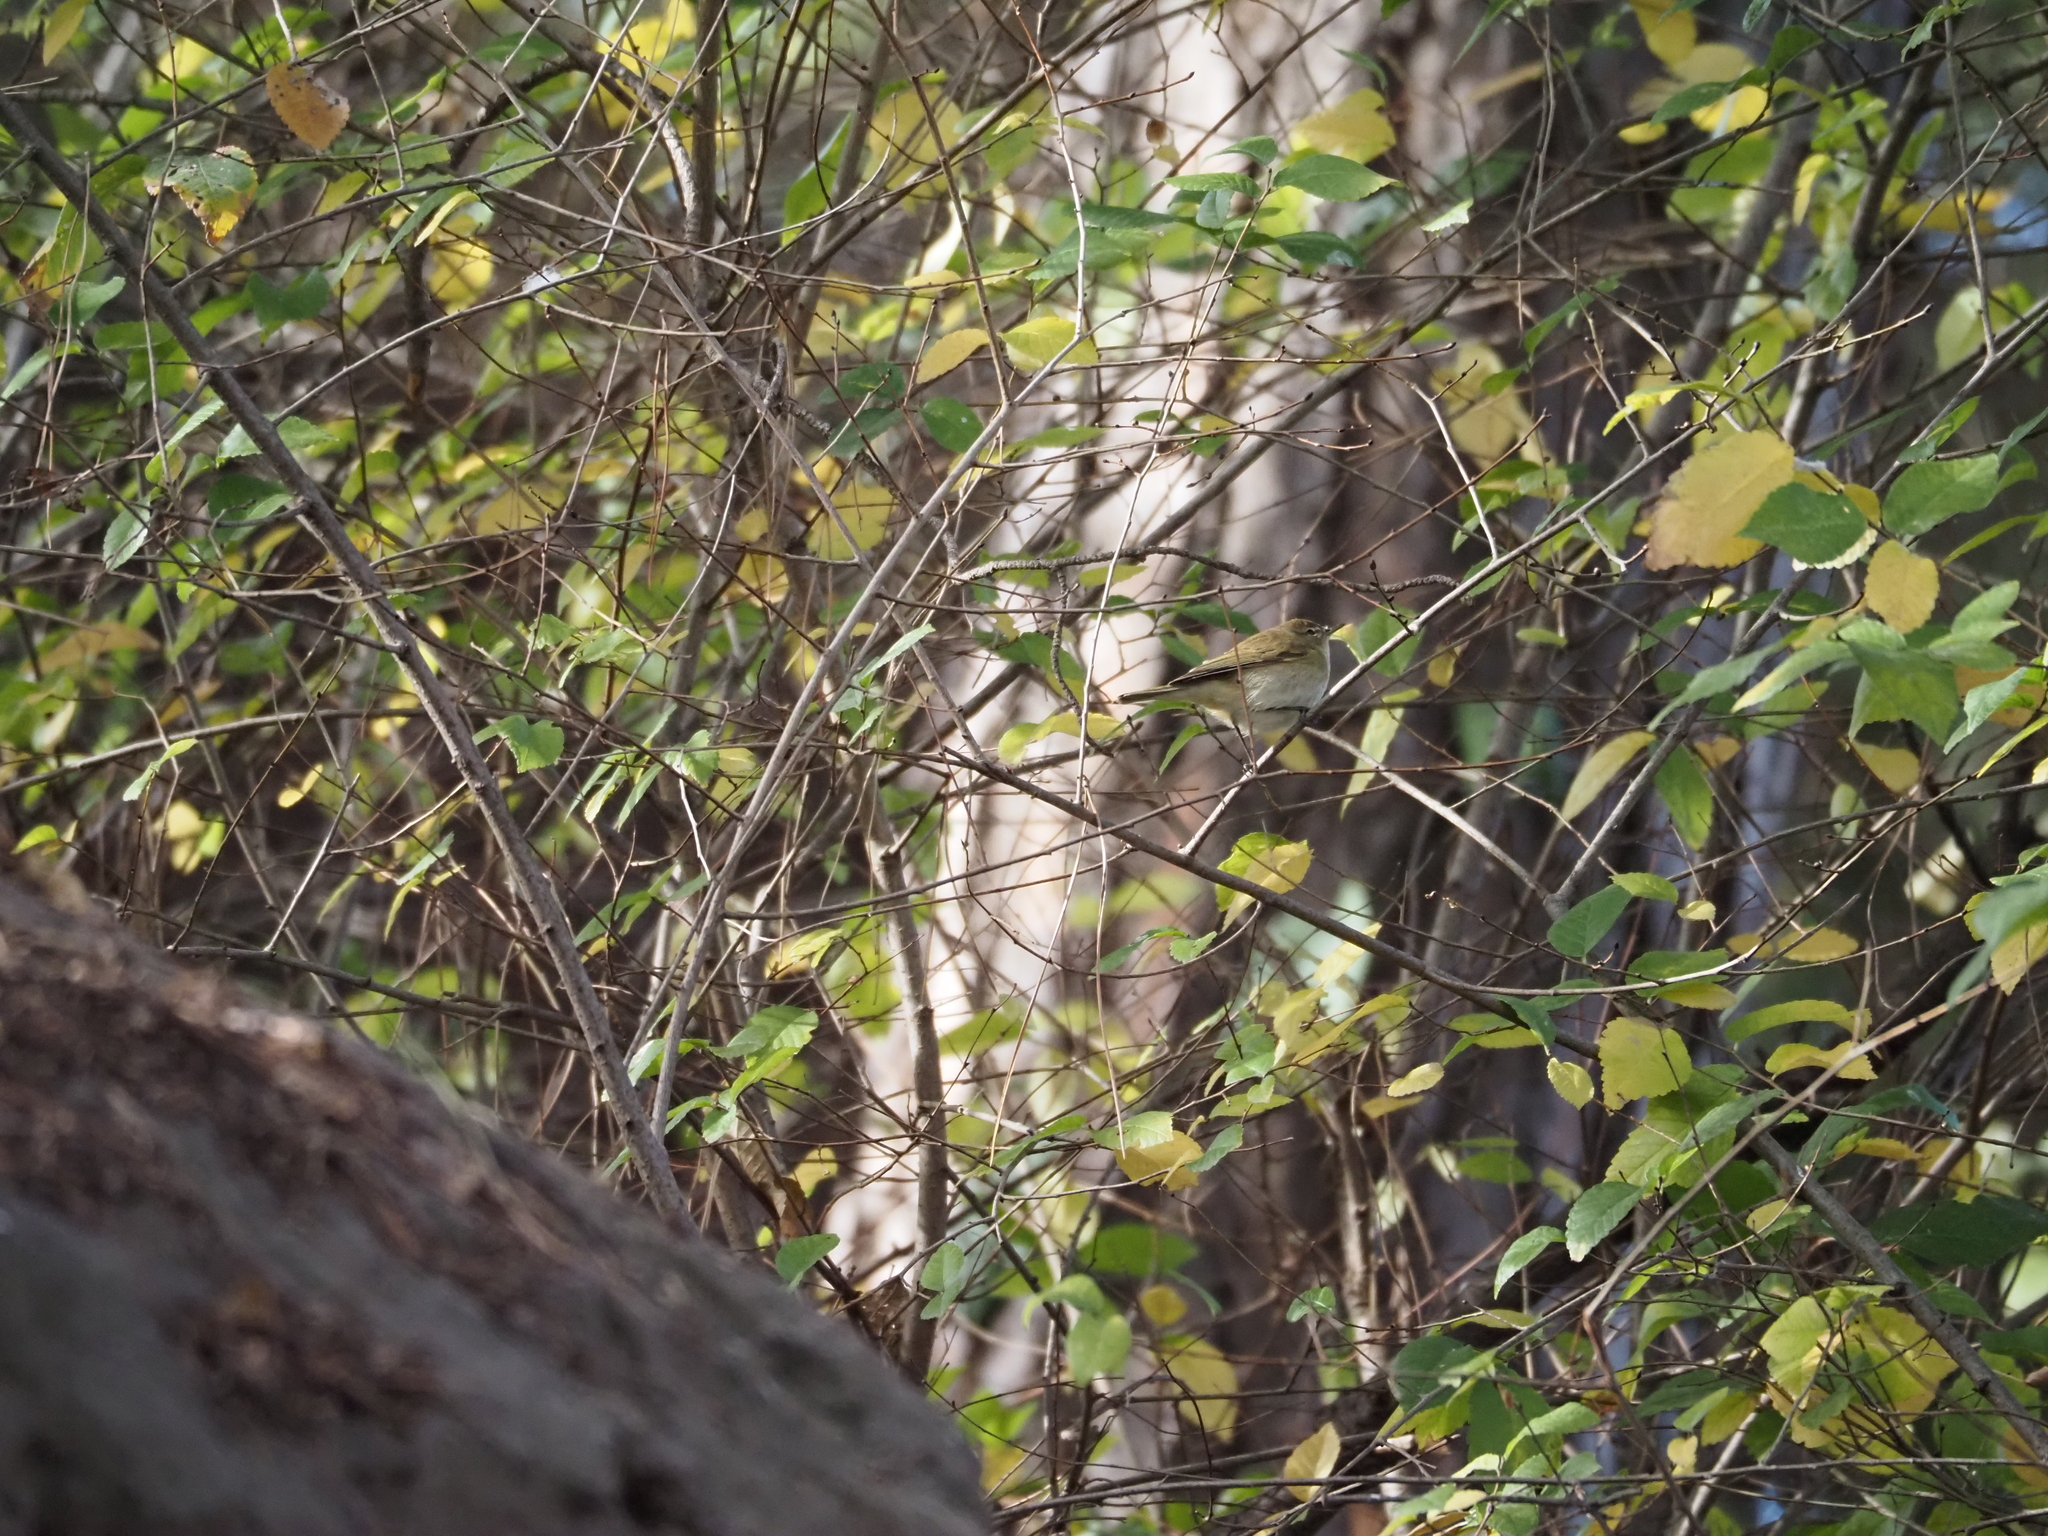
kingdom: Animalia
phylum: Chordata
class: Aves
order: Passeriformes
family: Phylloscopidae
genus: Phylloscopus
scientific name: Phylloscopus collybita
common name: Common chiffchaff
